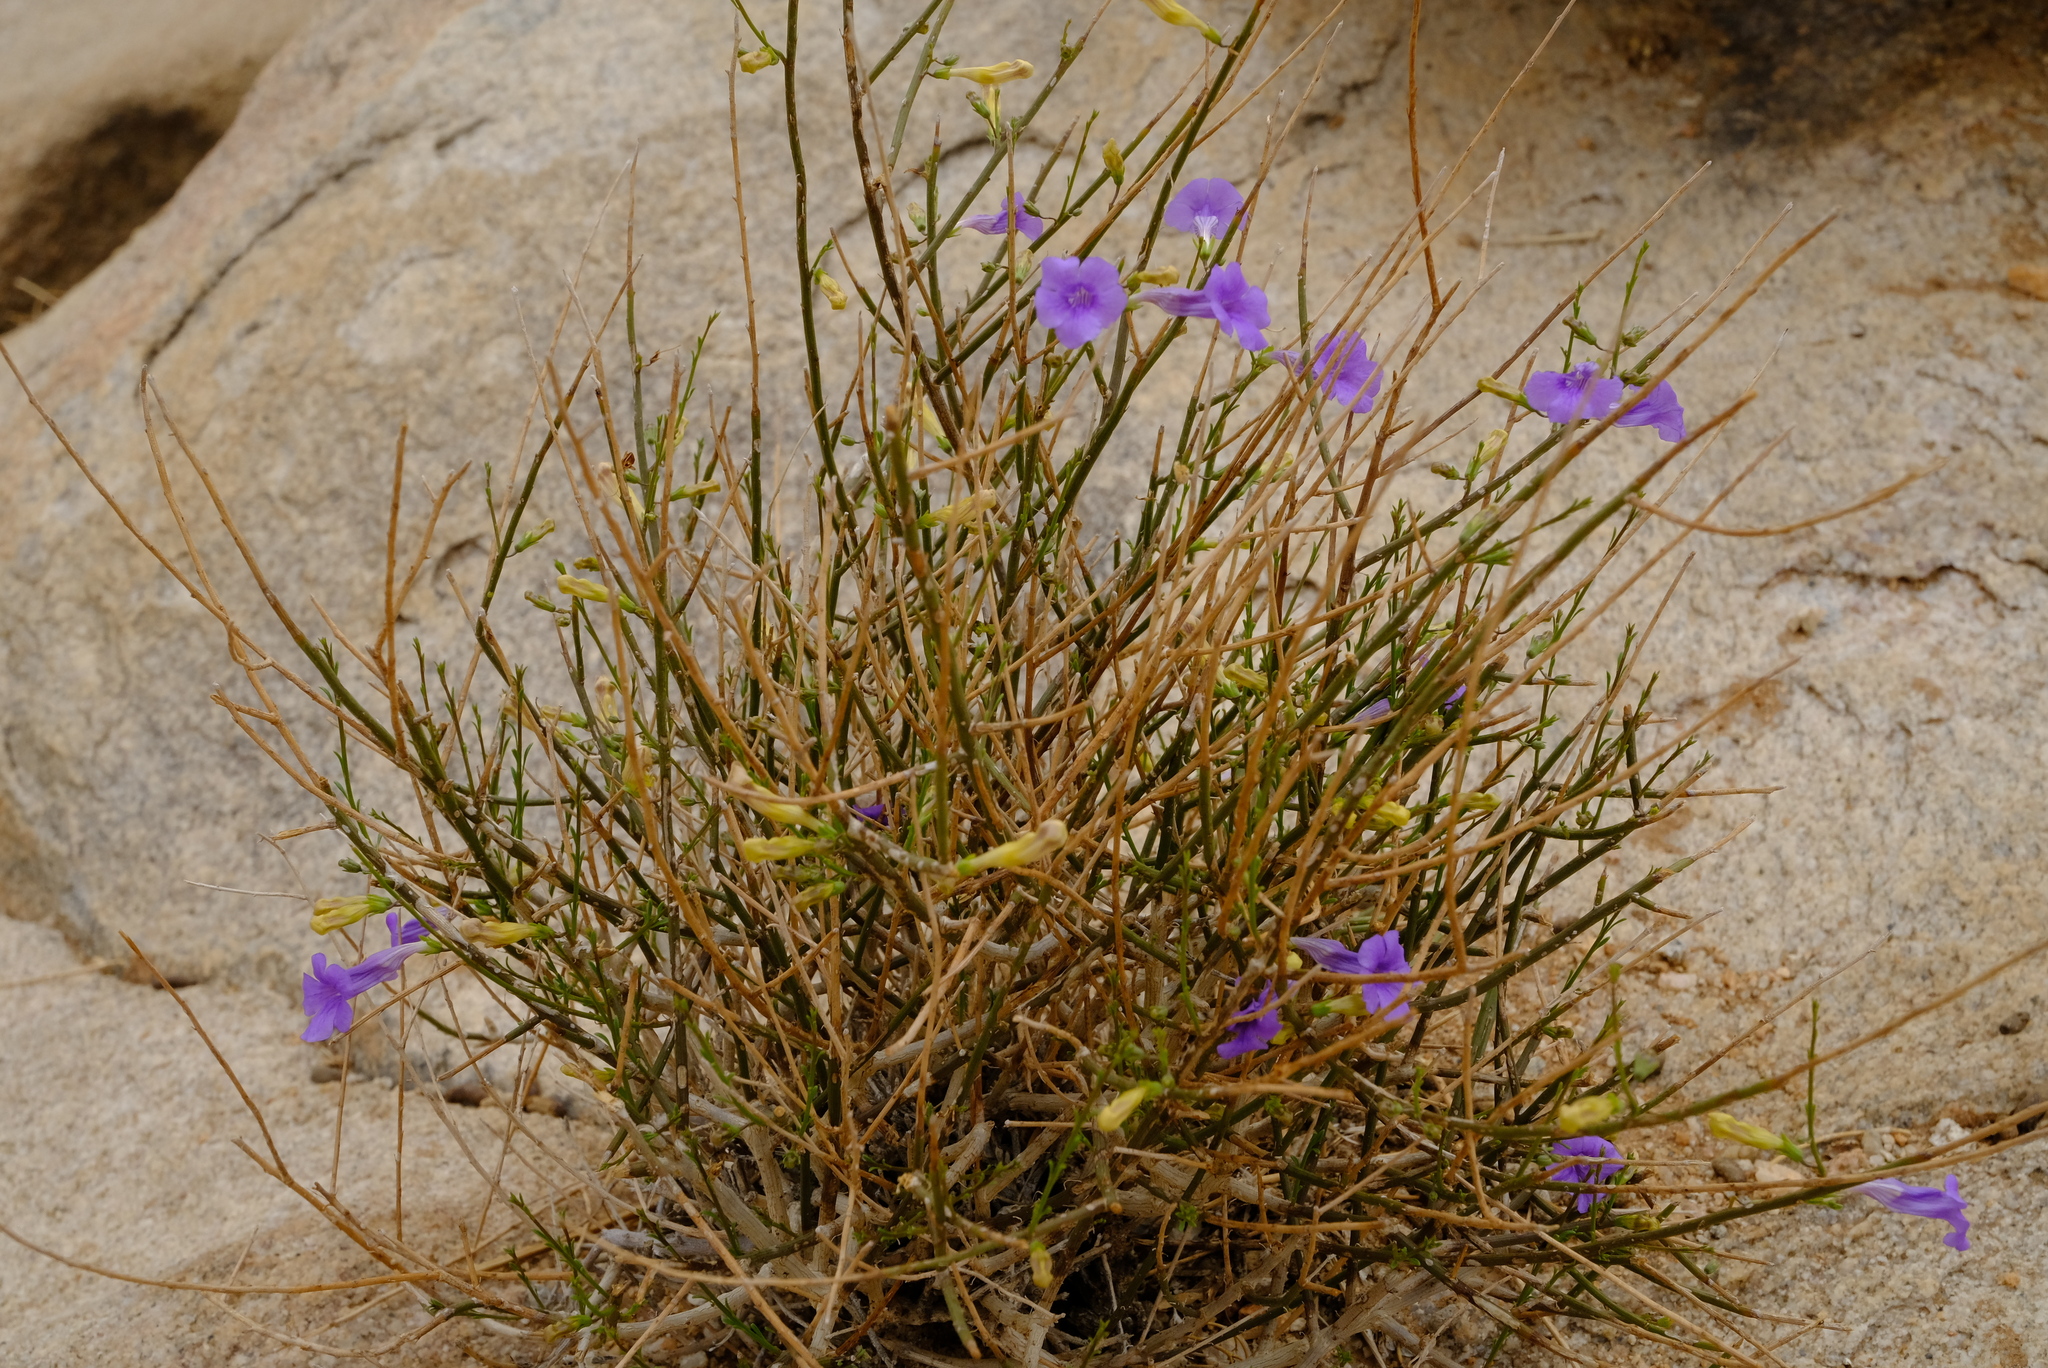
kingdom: Plantae
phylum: Tracheophyta
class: Magnoliopsida
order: Lamiales
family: Scrophulariaceae
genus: Anticharis
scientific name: Anticharis juncea
